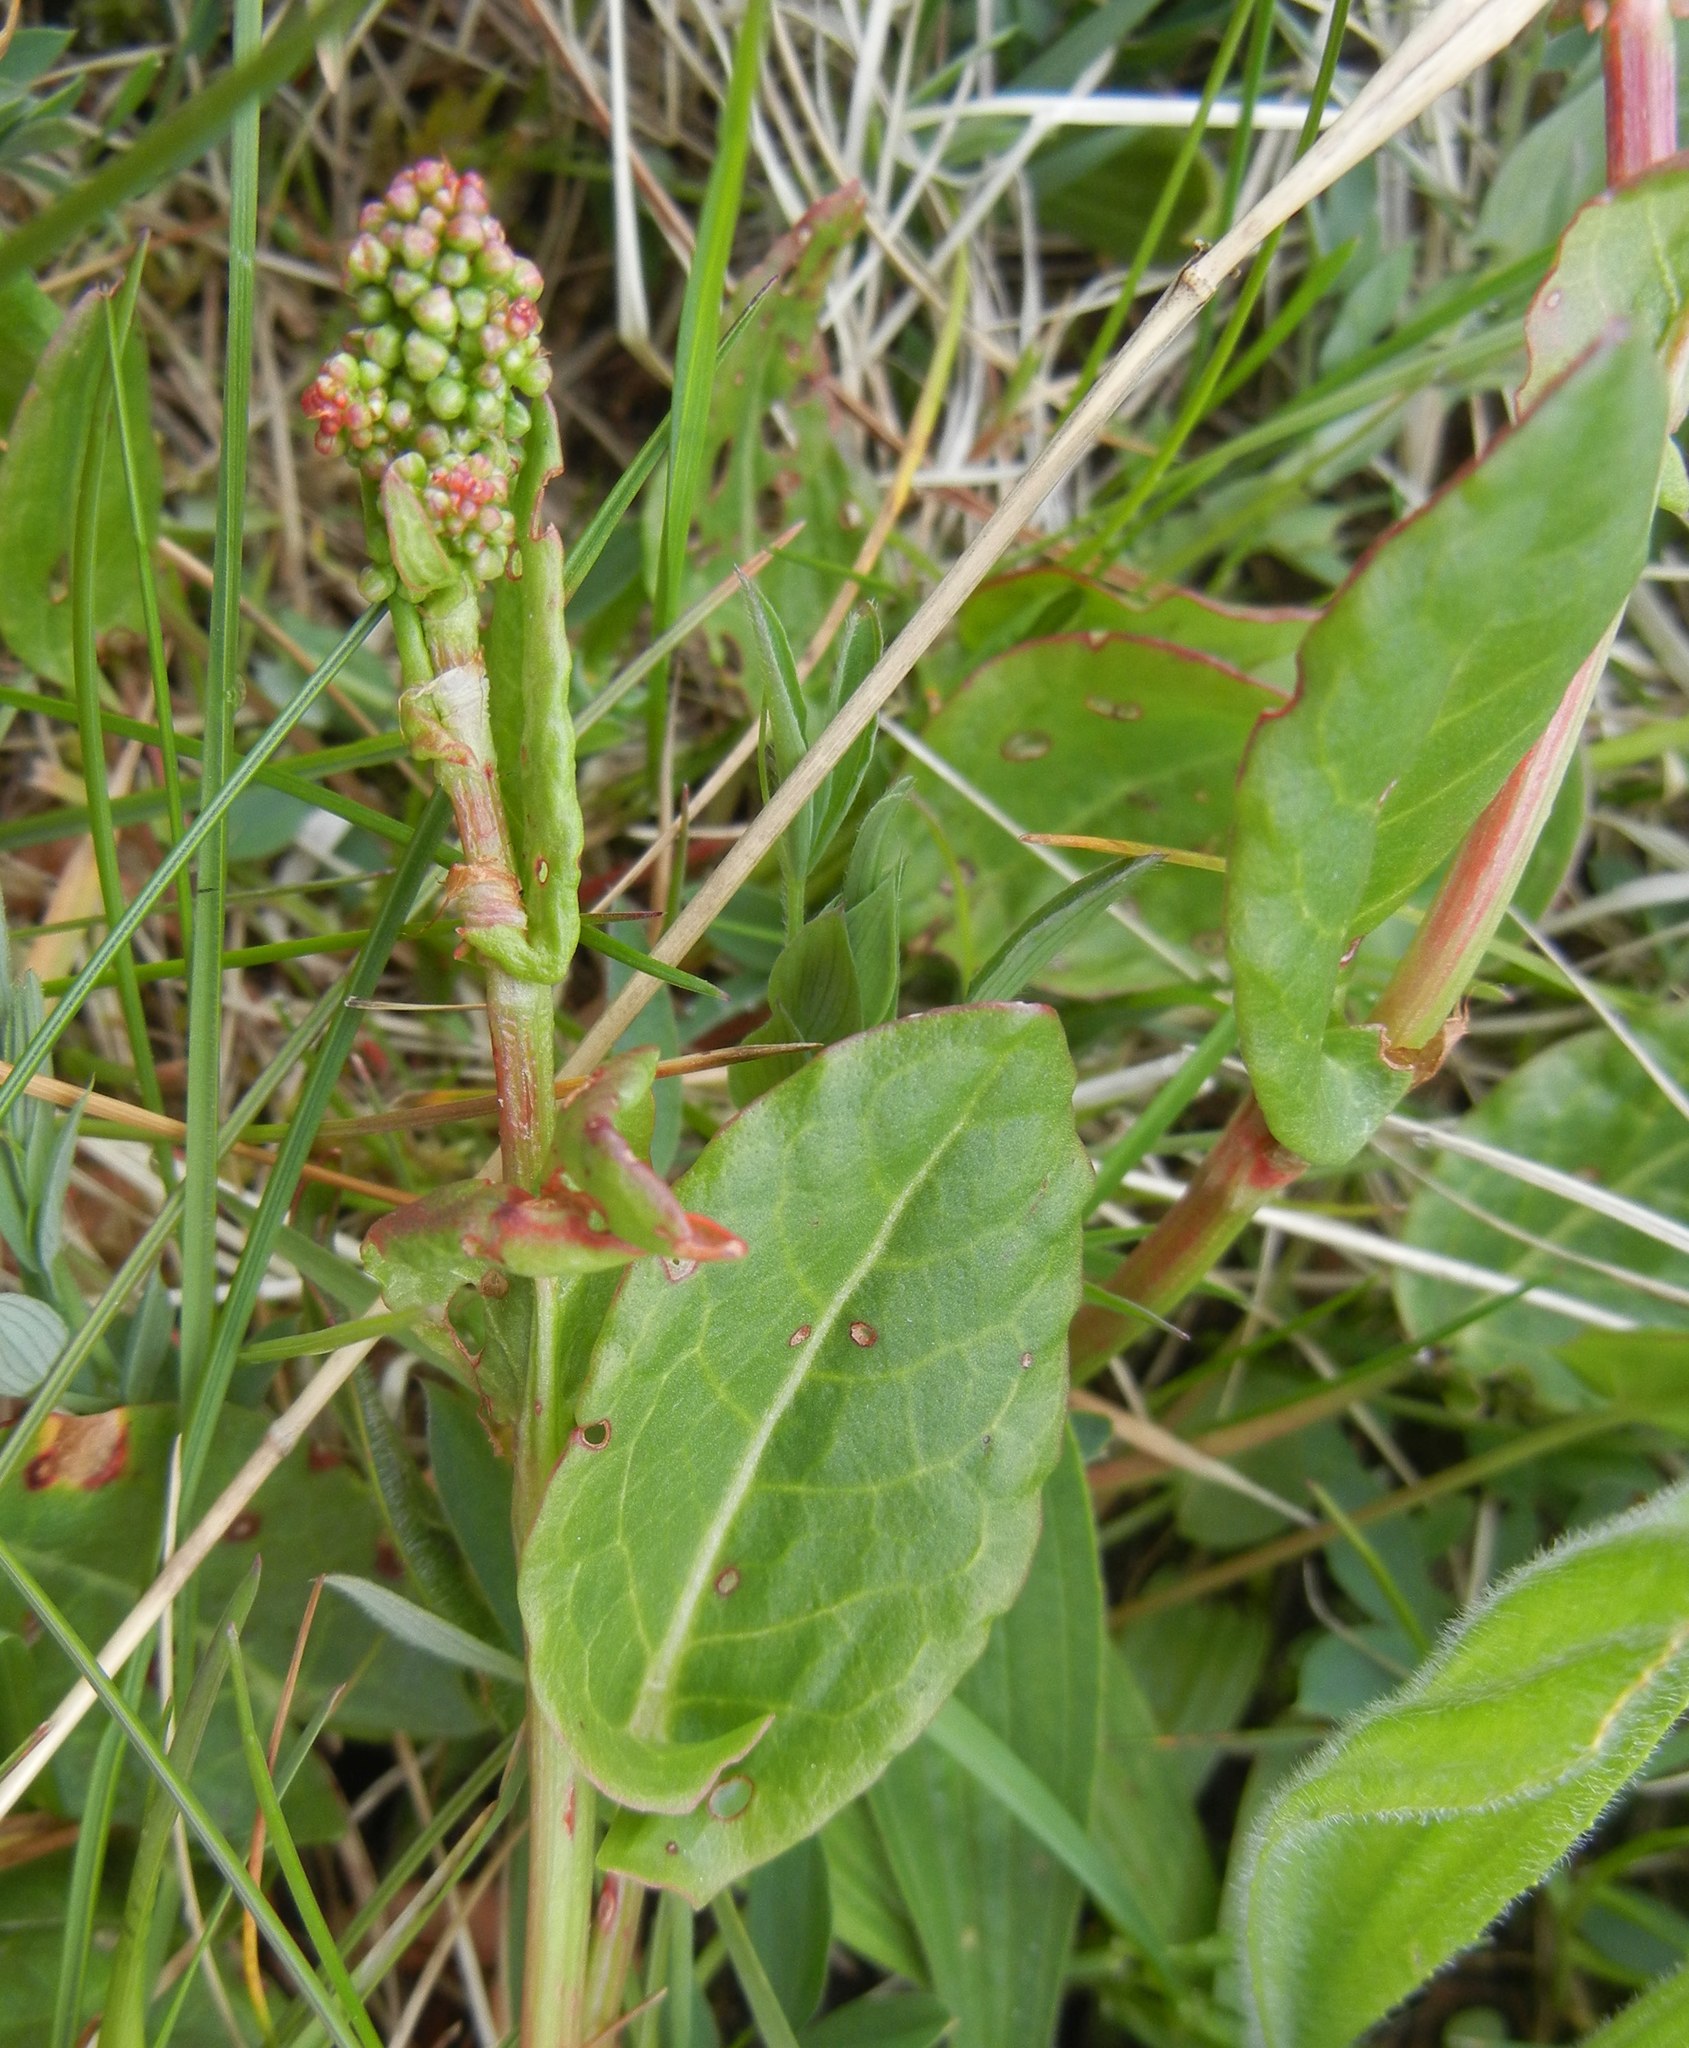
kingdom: Plantae
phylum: Tracheophyta
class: Magnoliopsida
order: Caryophyllales
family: Polygonaceae
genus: Rumex
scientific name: Rumex acetosa
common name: Garden sorrel
